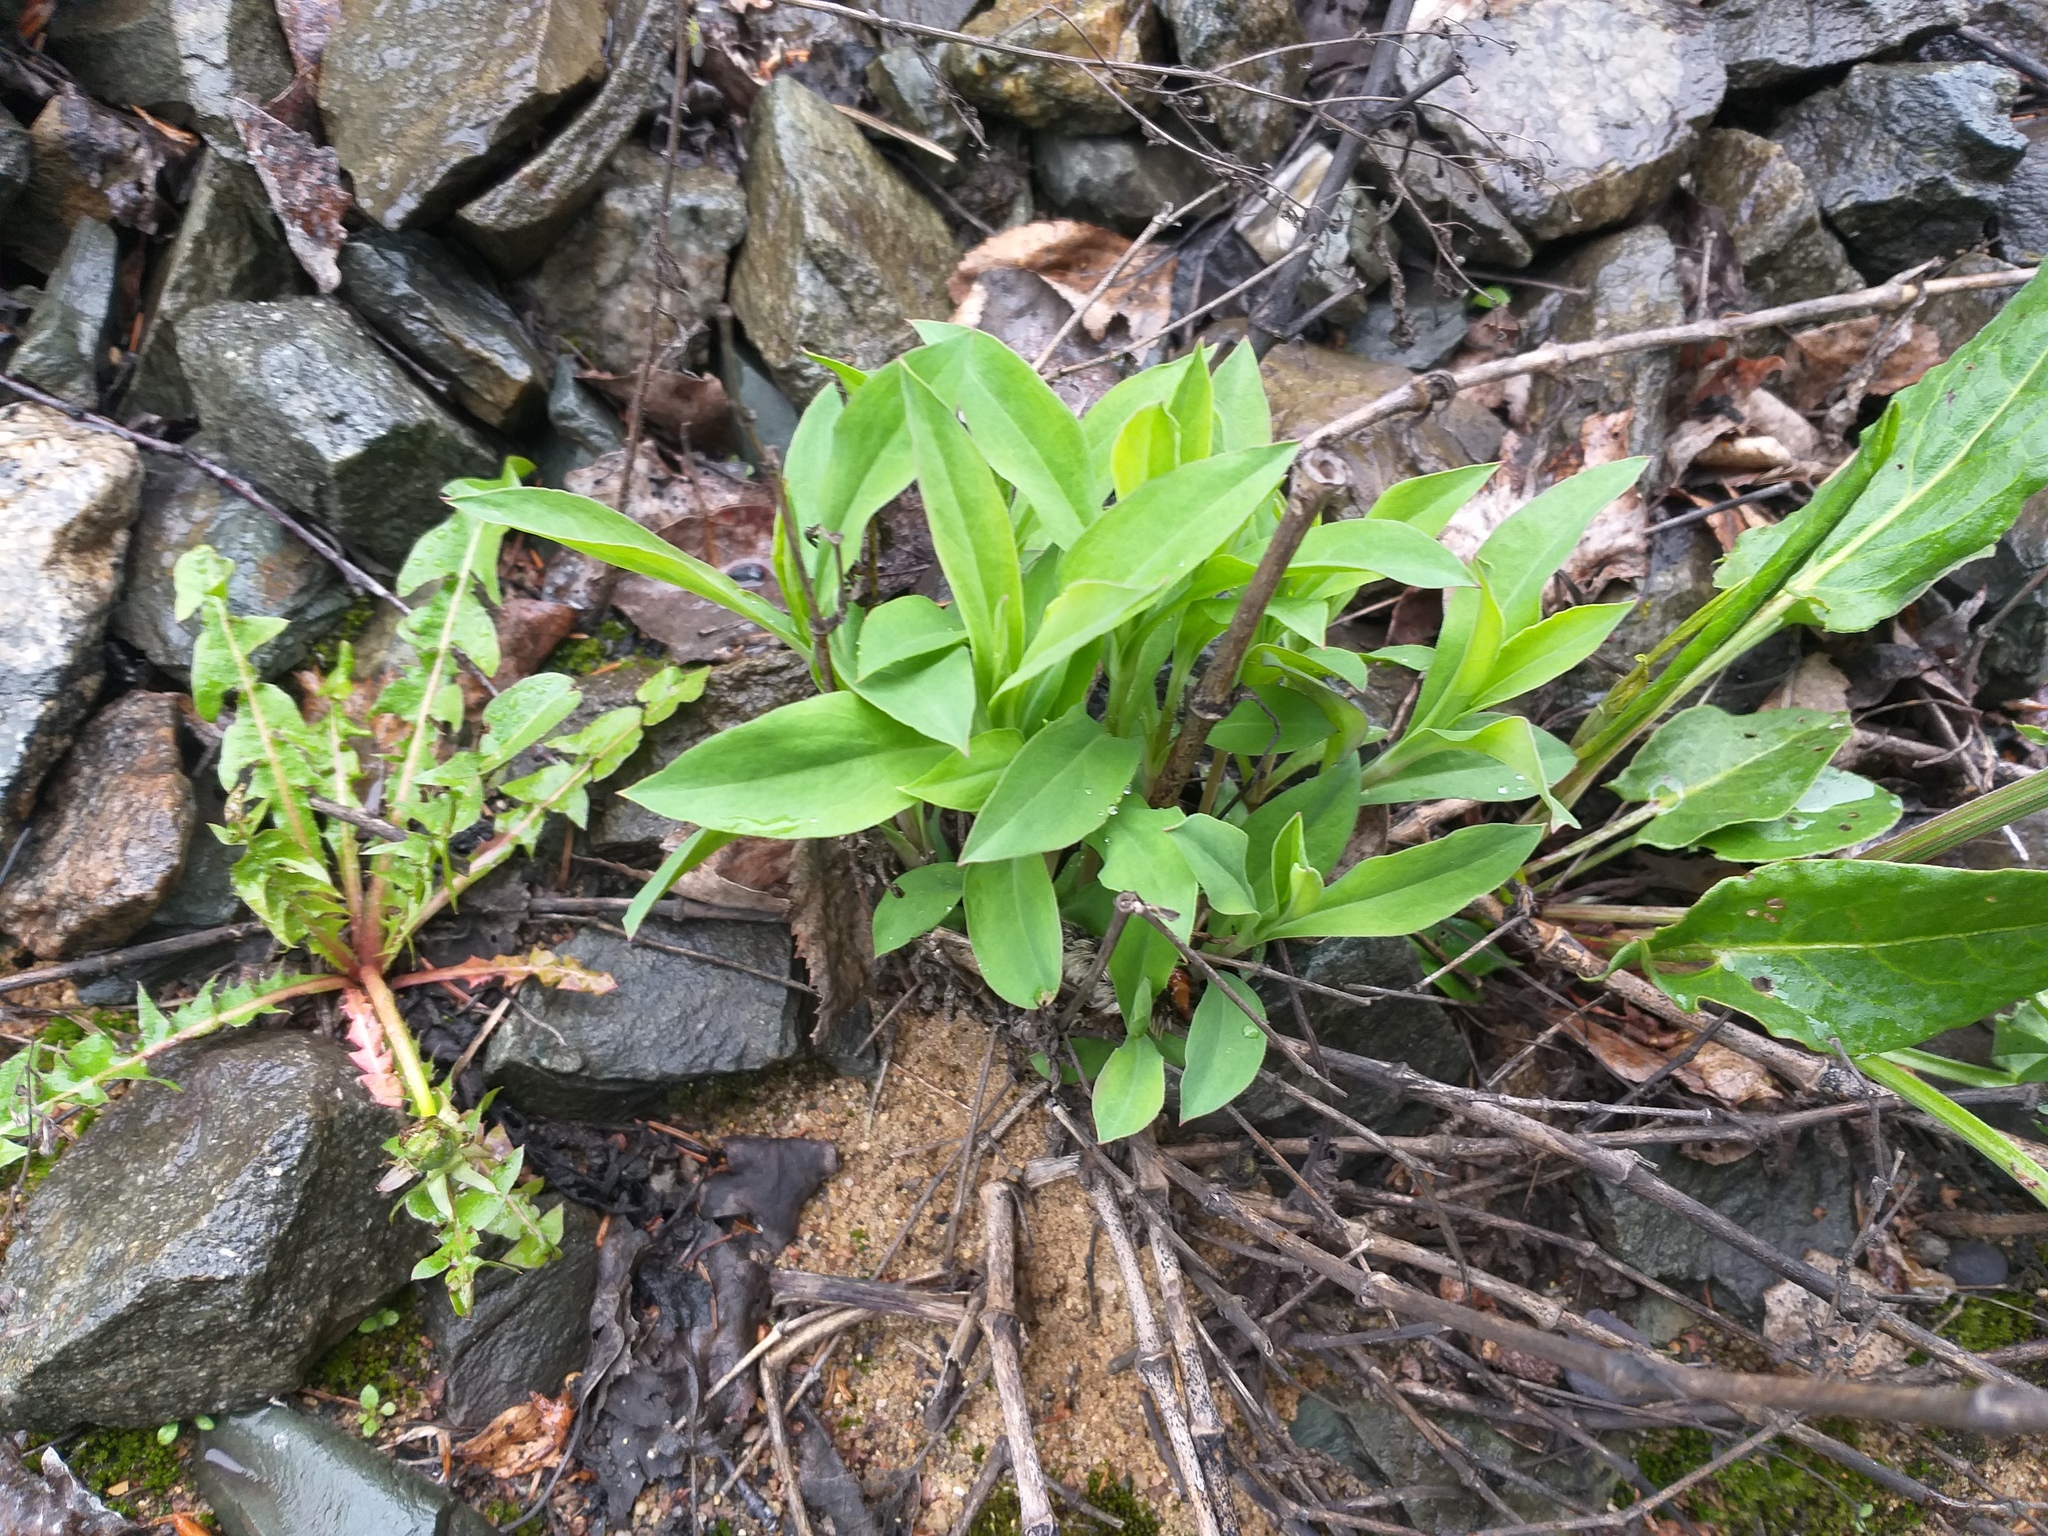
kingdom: Plantae
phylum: Tracheophyta
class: Magnoliopsida
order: Caryophyllales
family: Caryophyllaceae
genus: Silene
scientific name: Silene vulgaris
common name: Bladder campion
